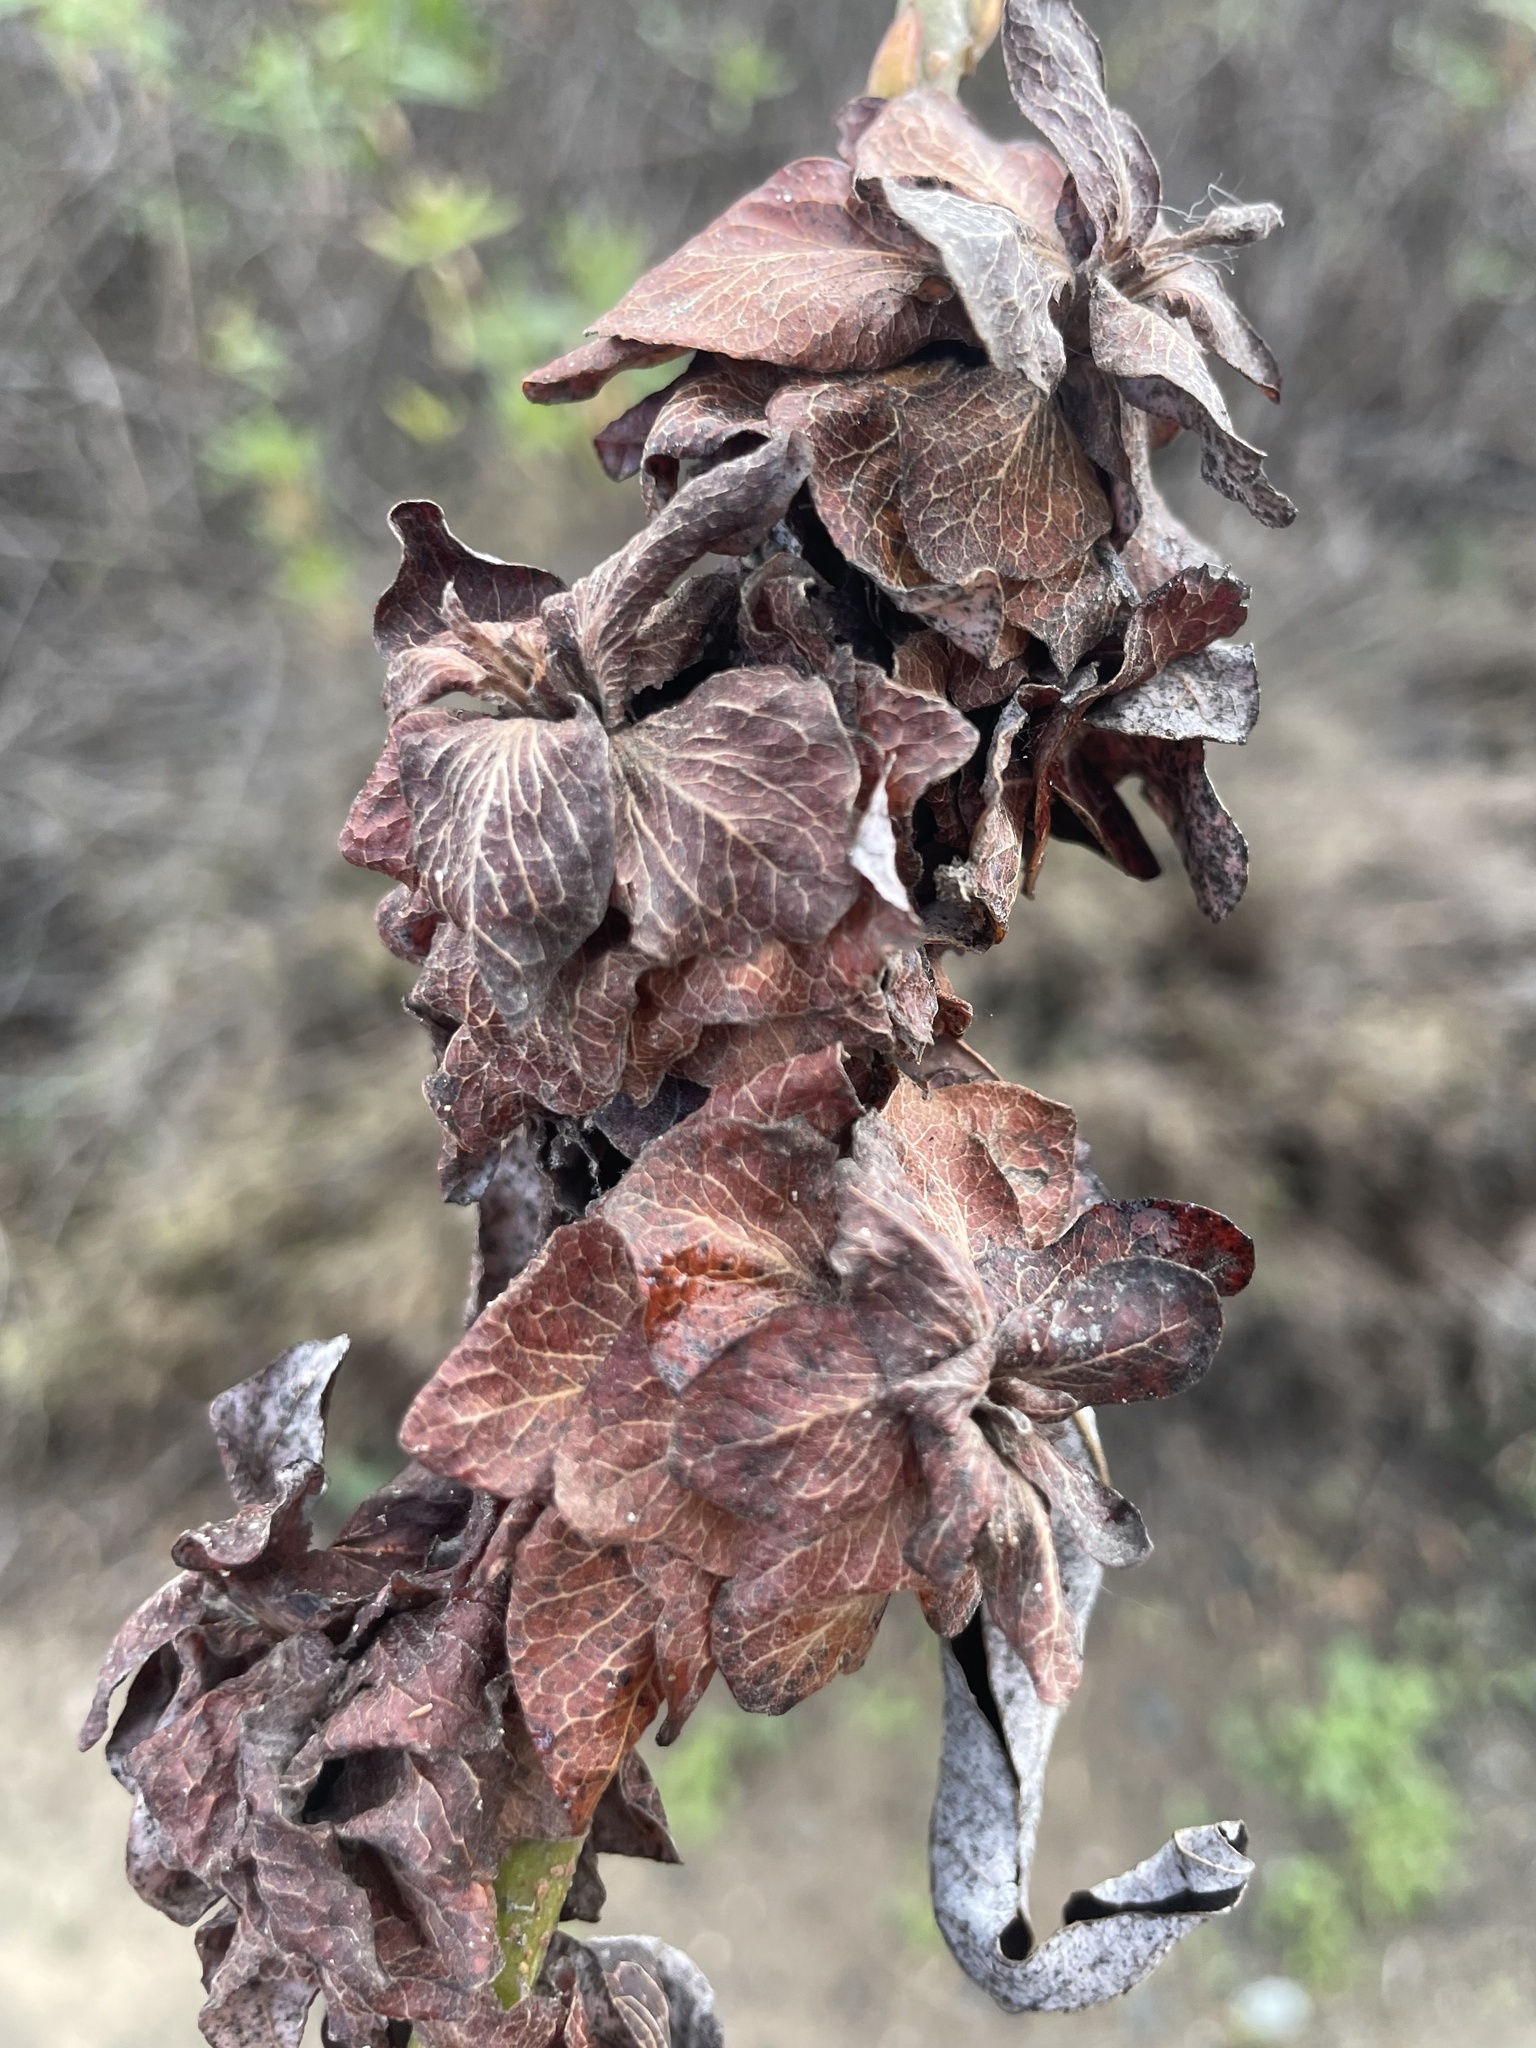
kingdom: Animalia
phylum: Arthropoda
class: Insecta
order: Diptera
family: Cecidomyiidae
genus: Rabdophaga
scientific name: Rabdophaga salicisbrassicoides
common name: Willow cabbagegall midge
